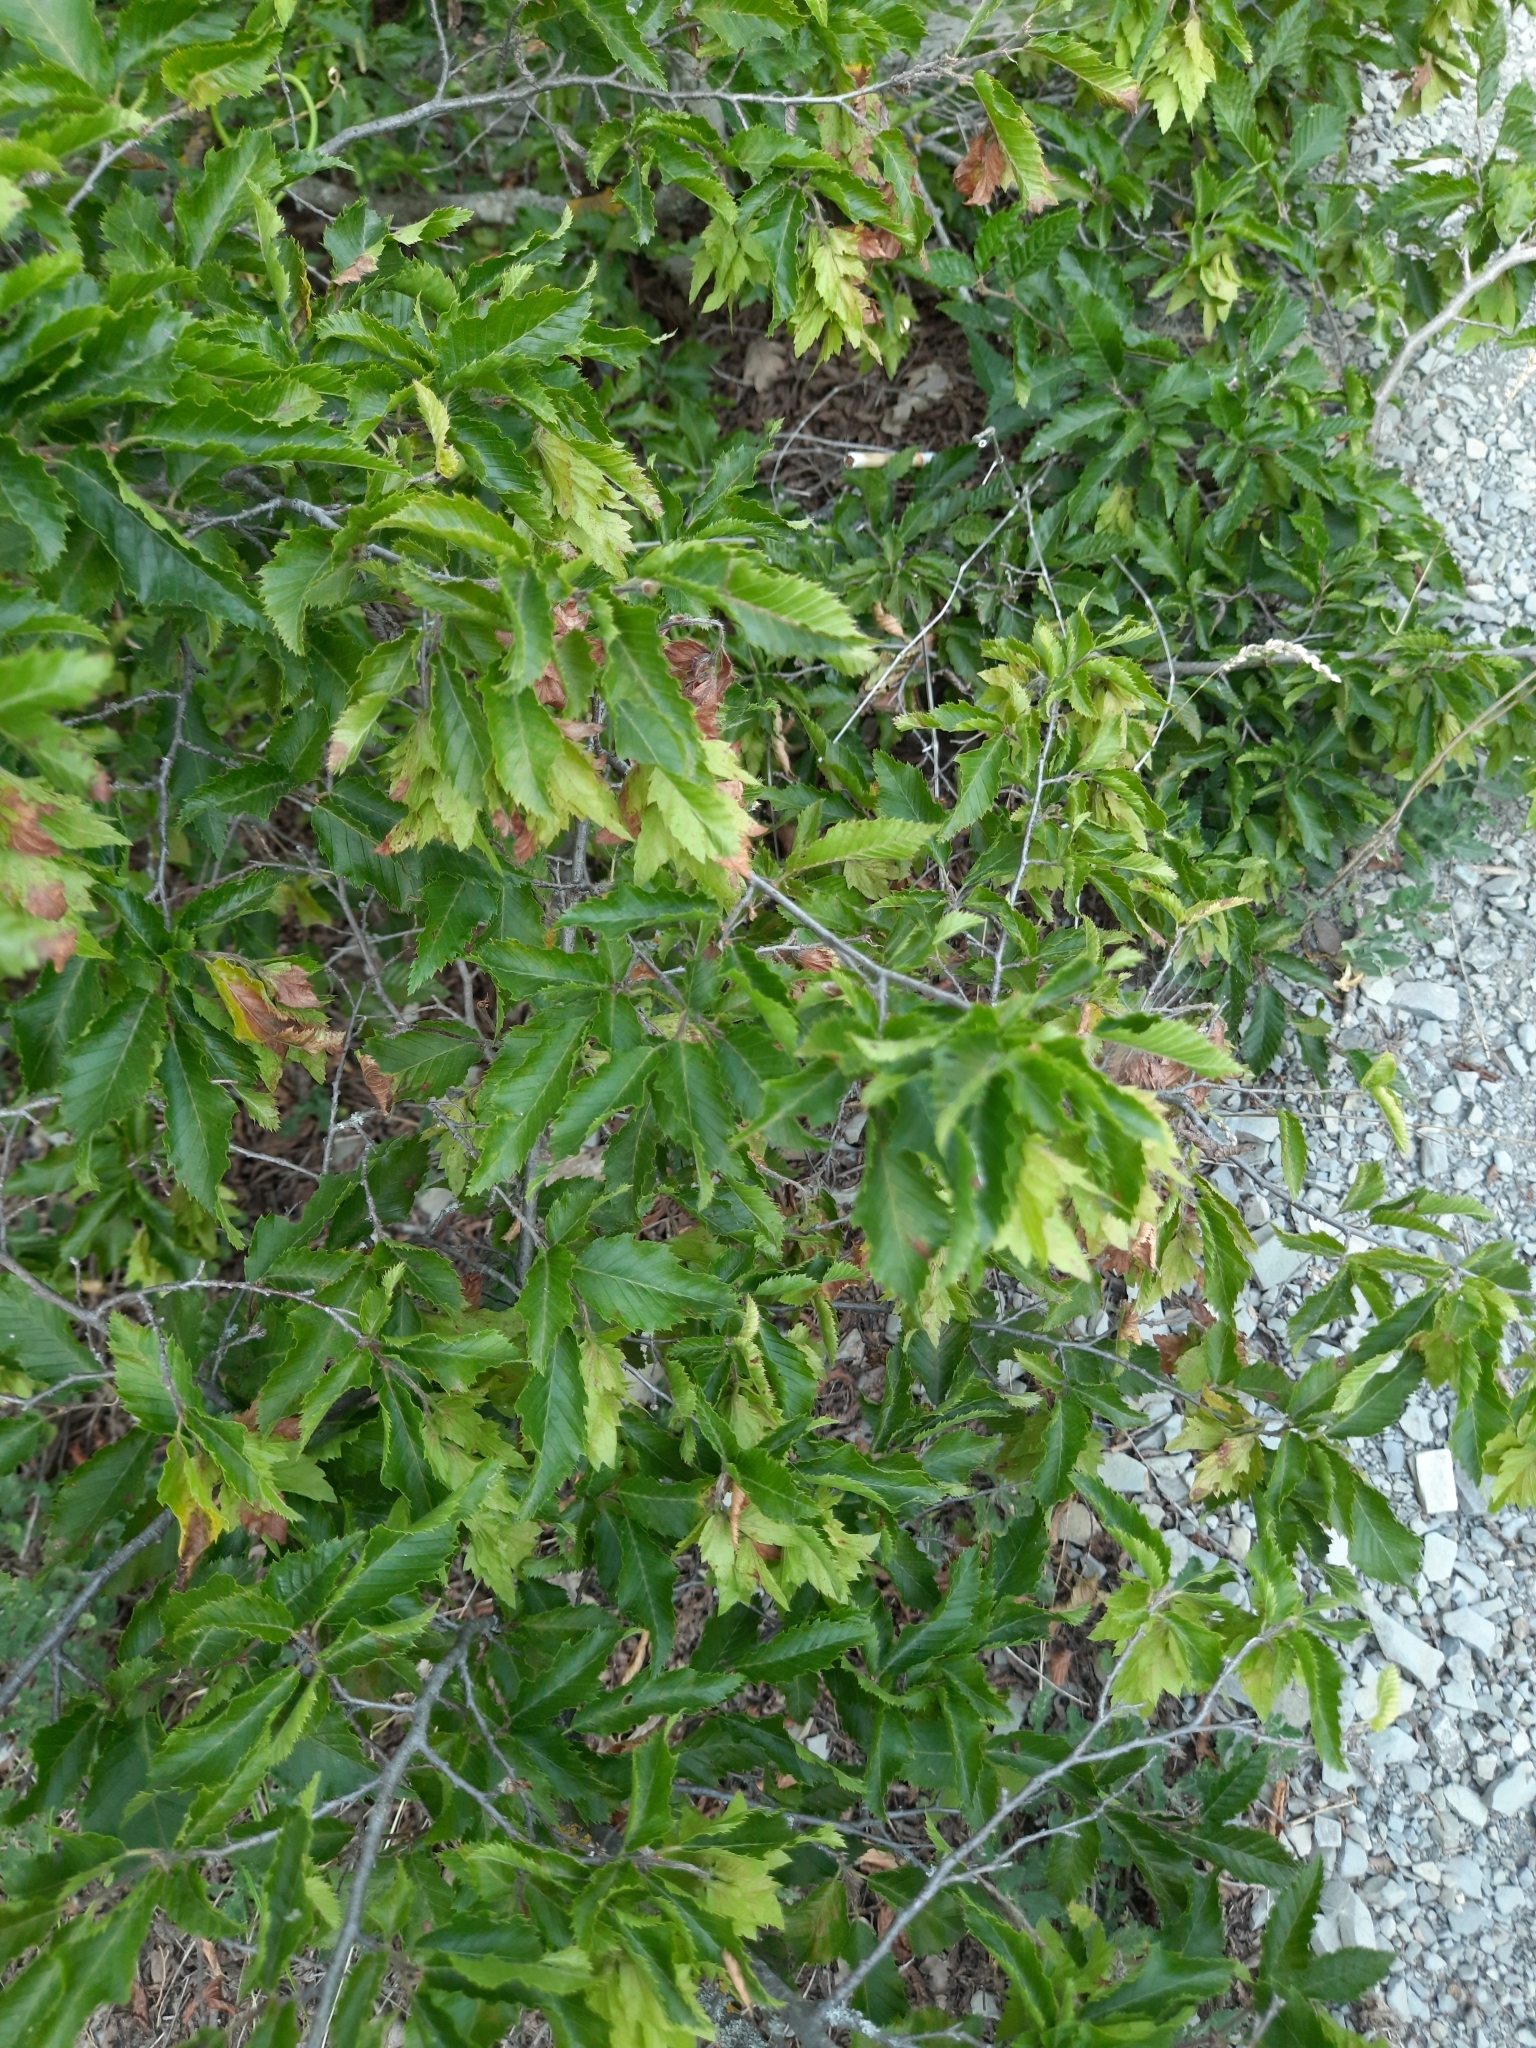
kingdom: Plantae
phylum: Tracheophyta
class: Magnoliopsida
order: Fagales
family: Betulaceae
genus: Carpinus
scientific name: Carpinus orientalis
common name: Eastern hornbeam
